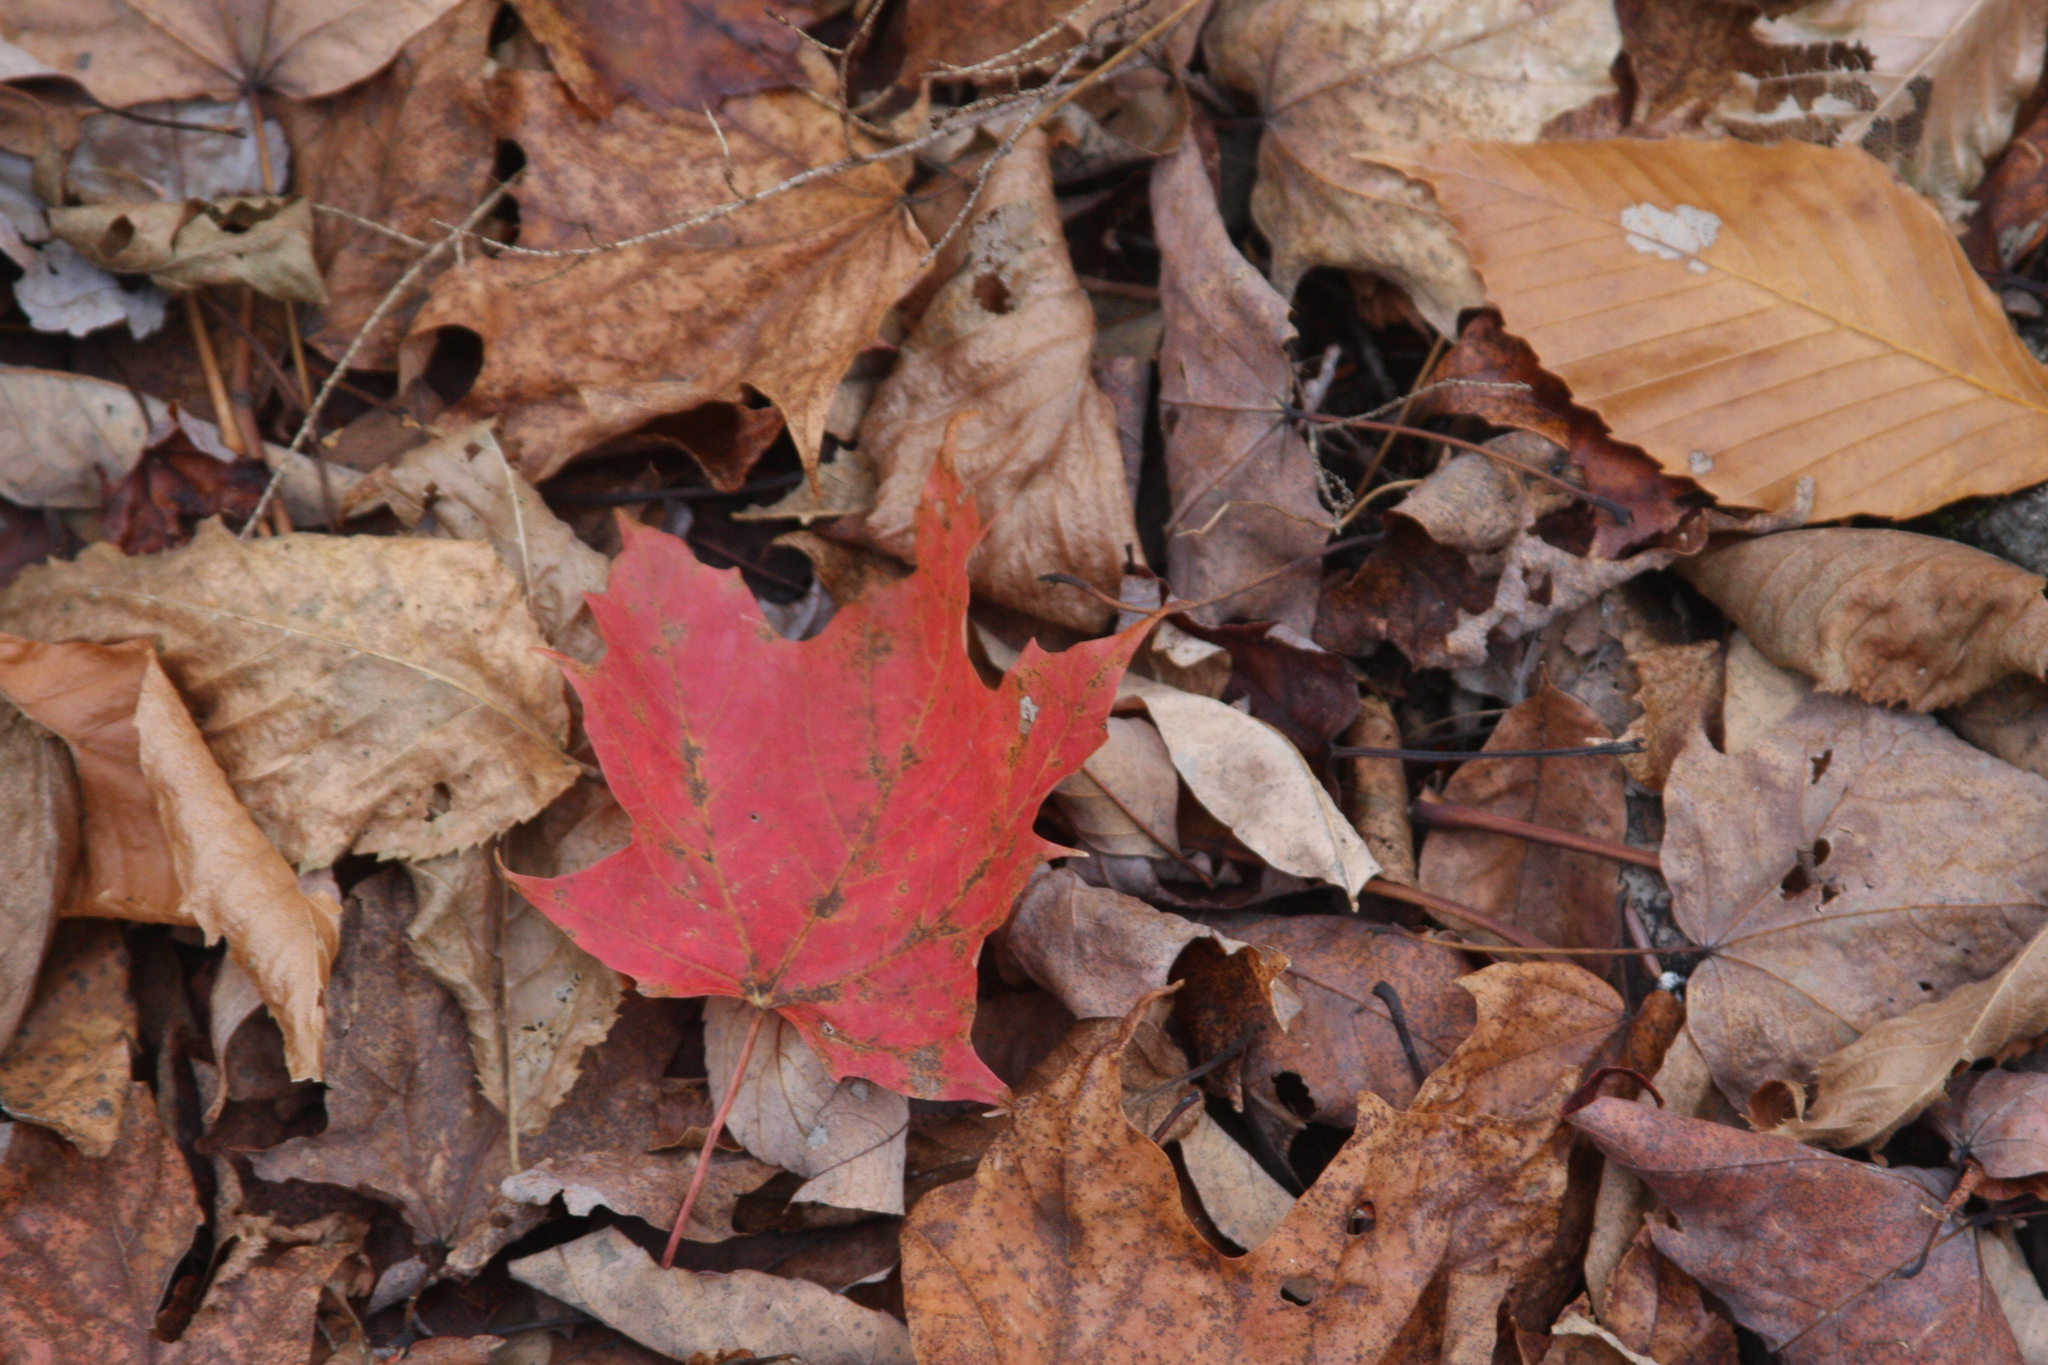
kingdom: Plantae
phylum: Tracheophyta
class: Magnoliopsida
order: Sapindales
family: Sapindaceae
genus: Acer
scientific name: Acer saccharum
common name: Sugar maple
